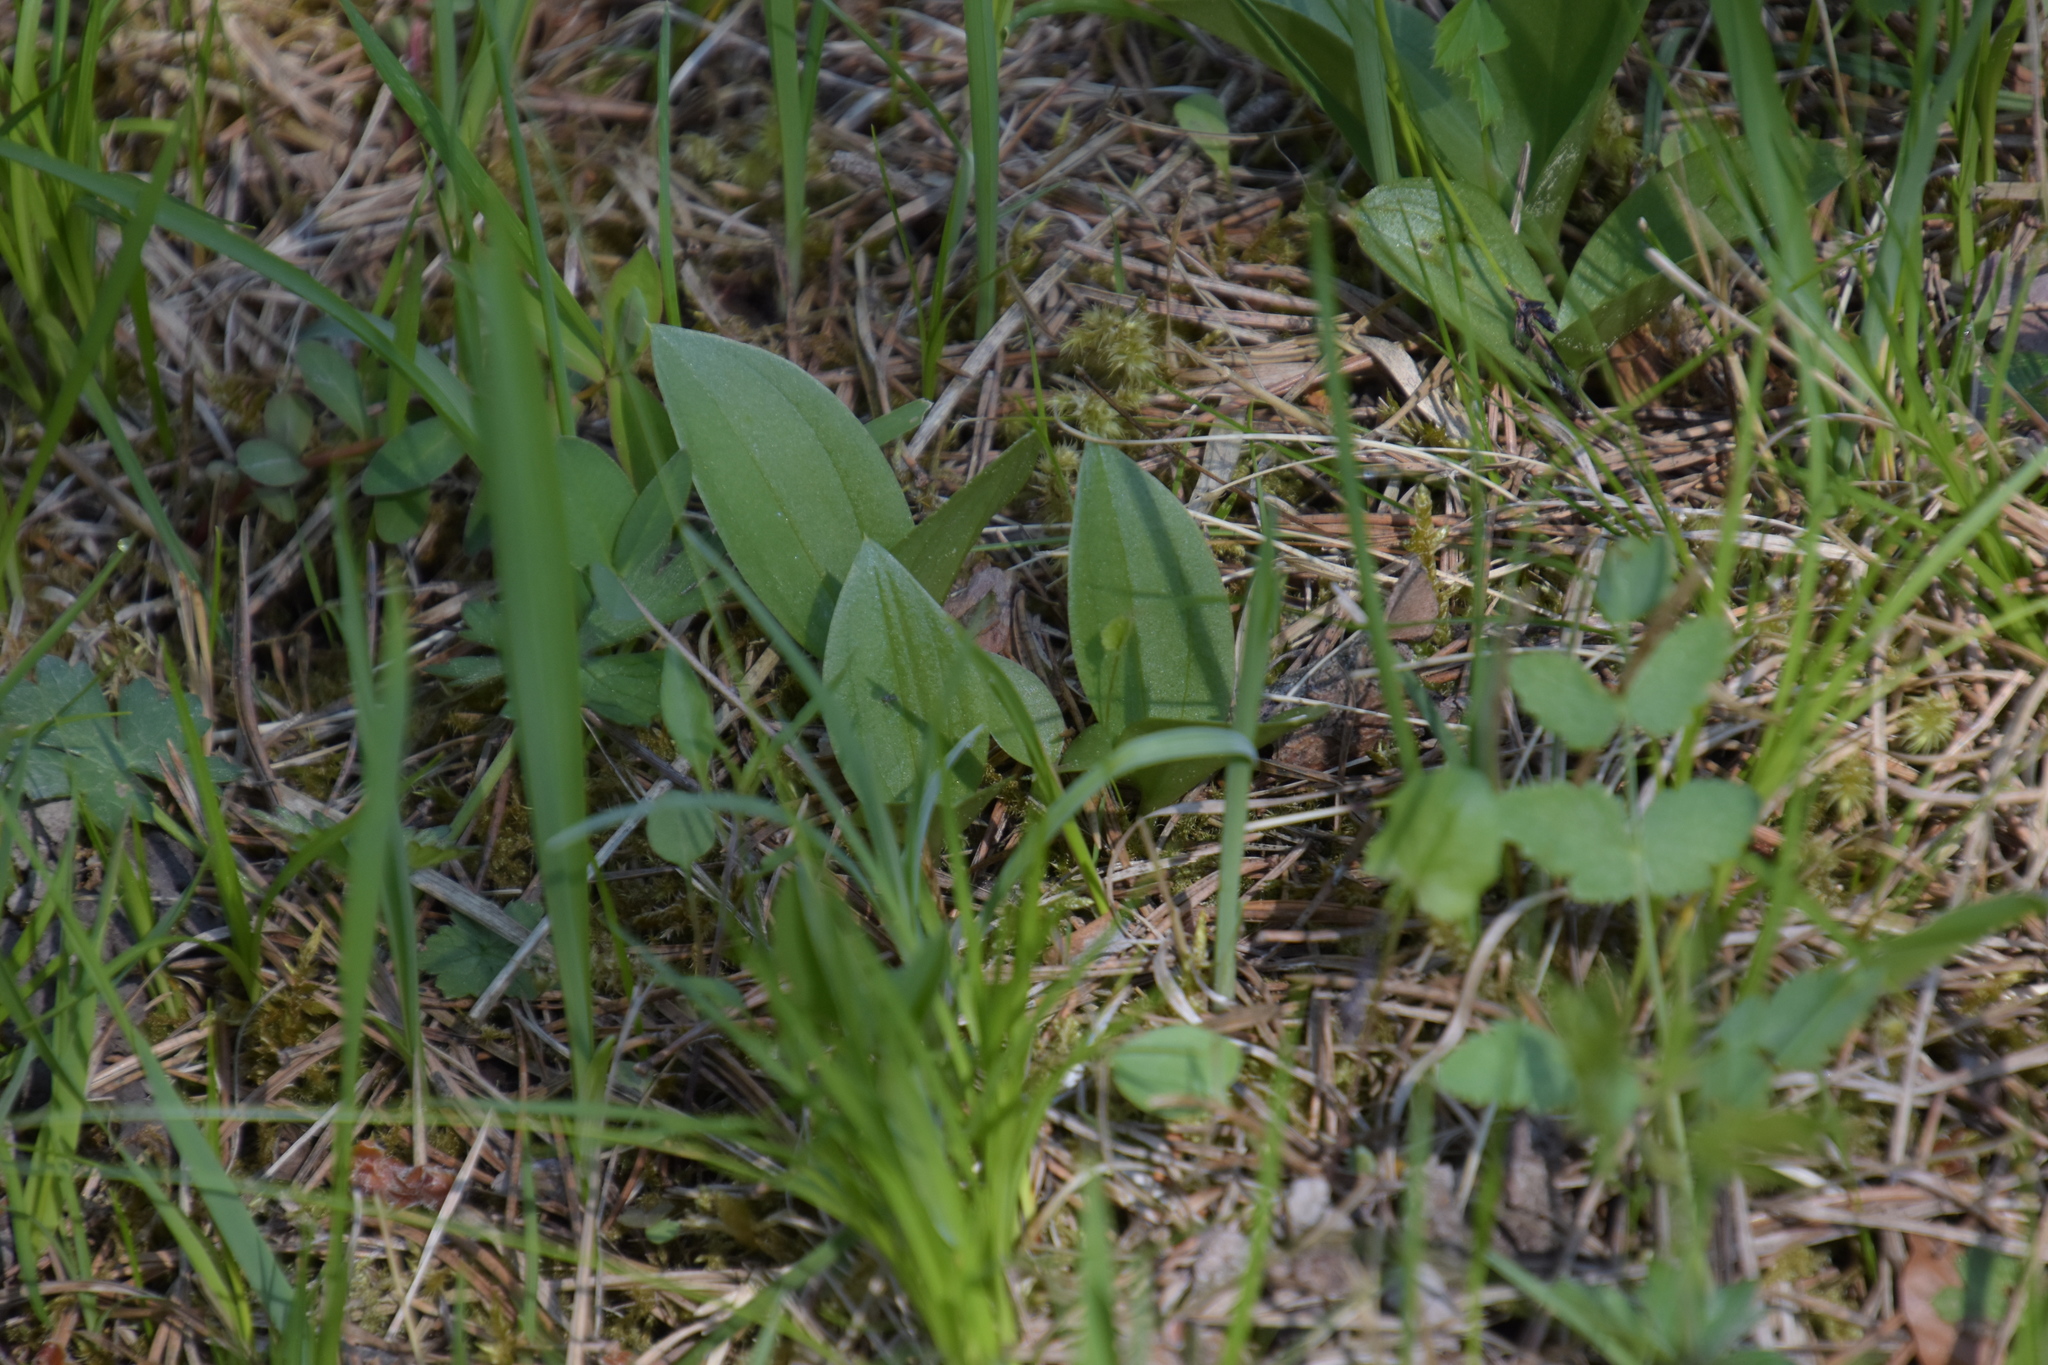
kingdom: Plantae
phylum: Tracheophyta
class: Liliopsida
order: Asparagales
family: Orchidaceae
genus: Neottia
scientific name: Neottia ovata
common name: Common twayblade
